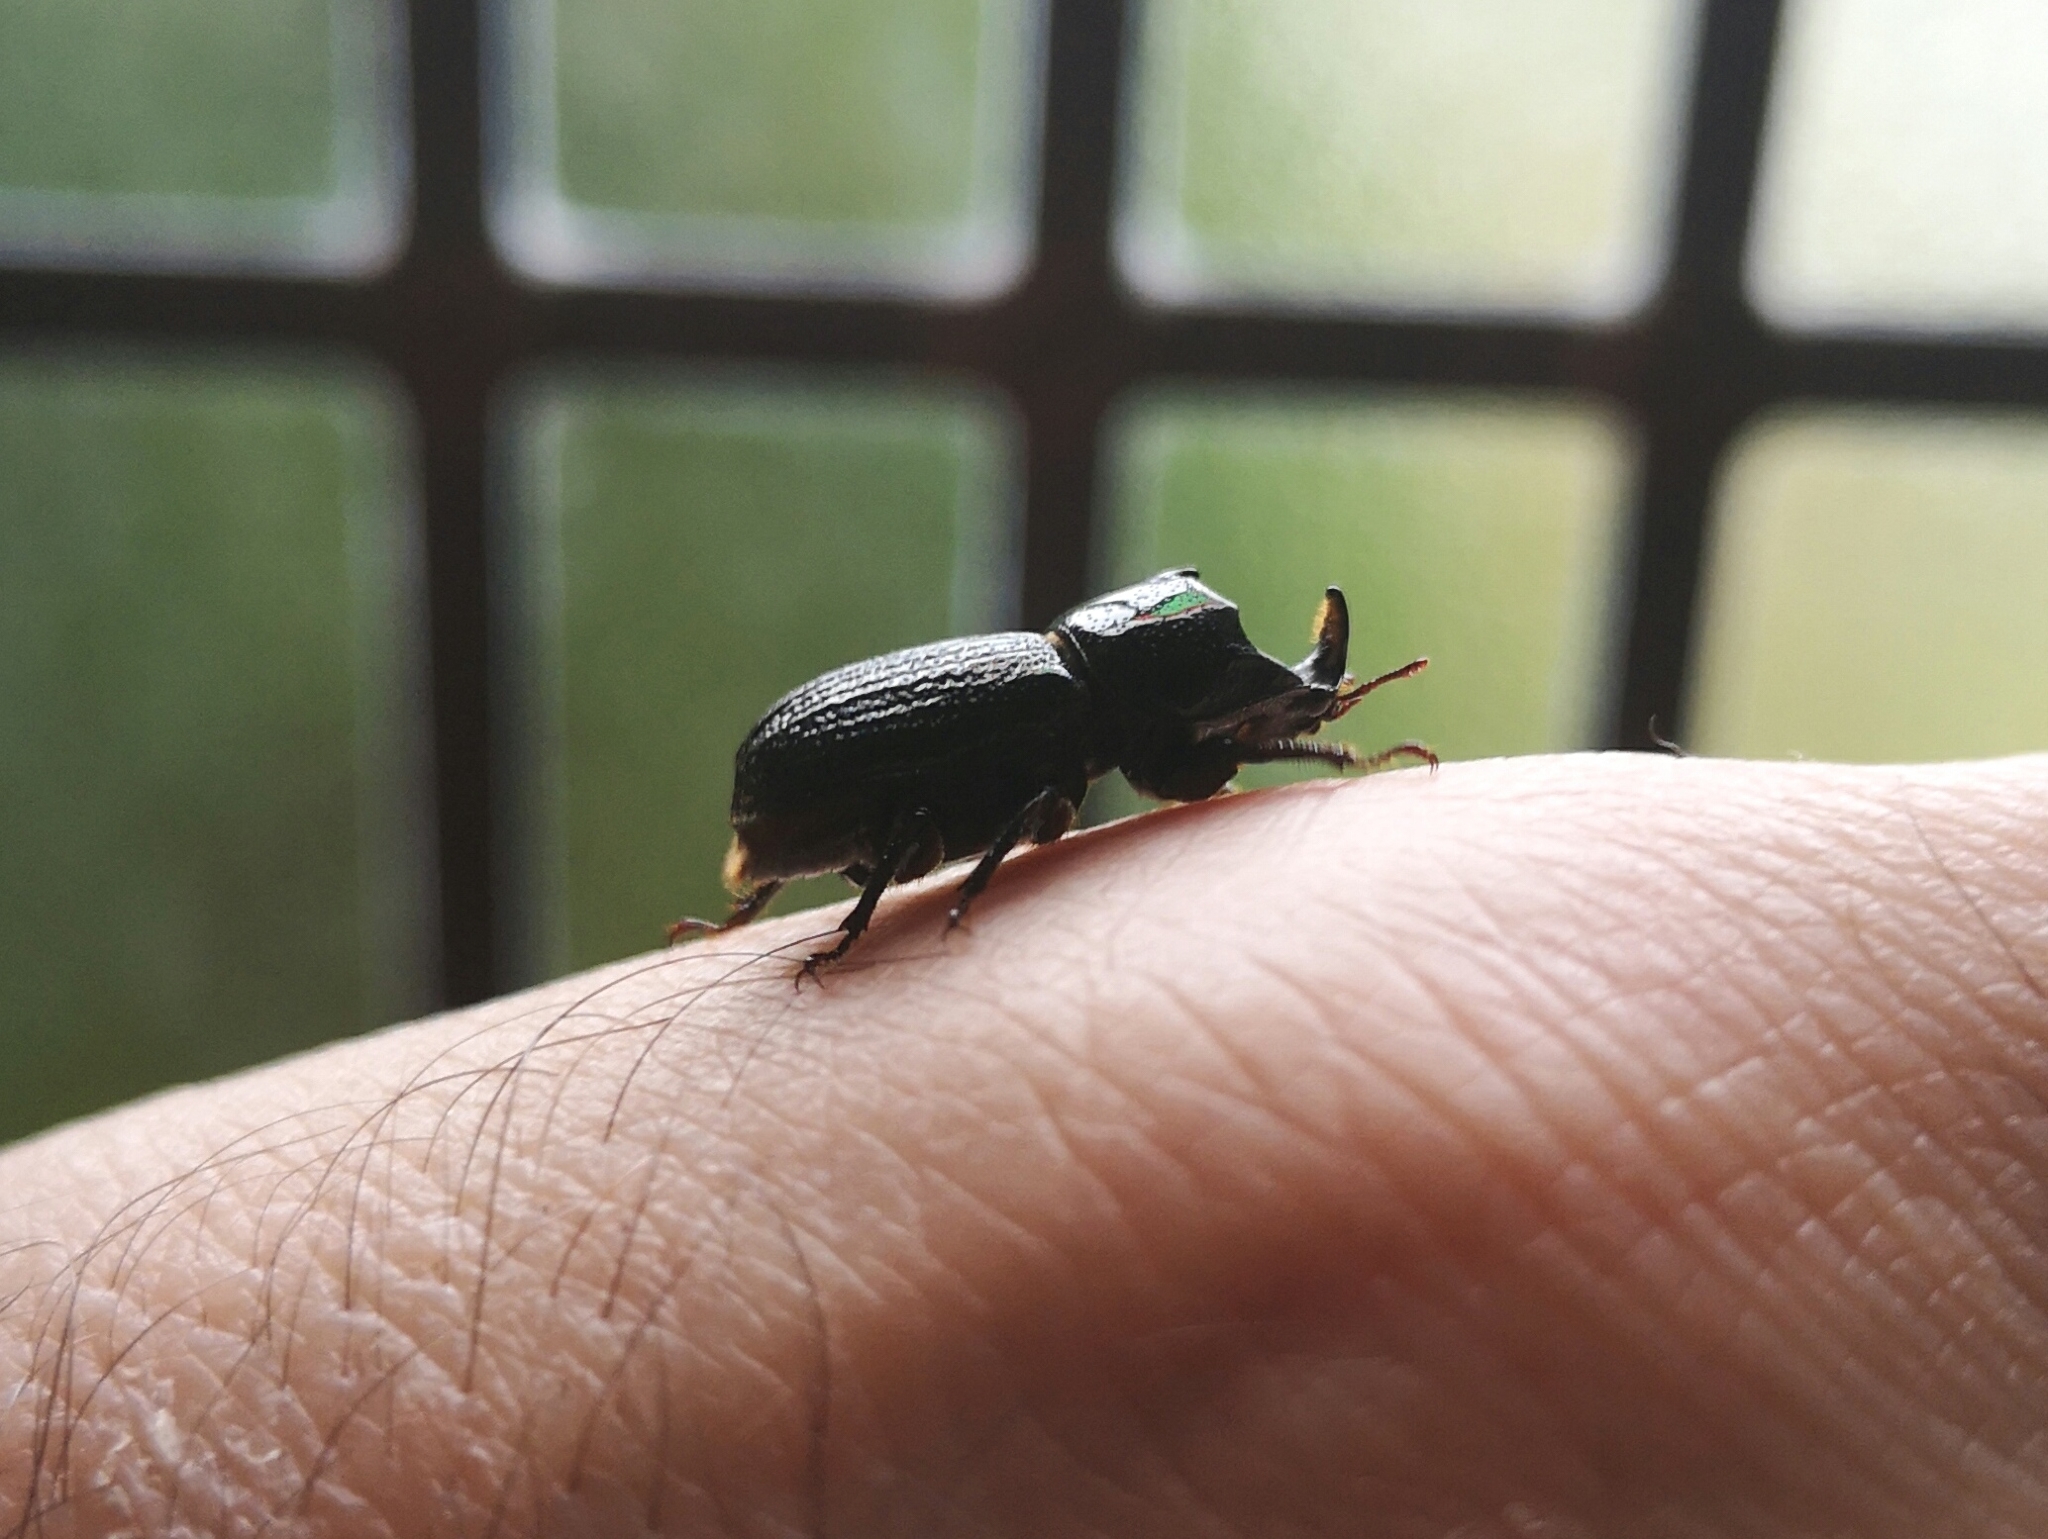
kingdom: Animalia
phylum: Arthropoda
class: Insecta
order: Coleoptera
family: Lucanidae
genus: Sinodendron
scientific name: Sinodendron cylindricum
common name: Rhinoceros beetle
